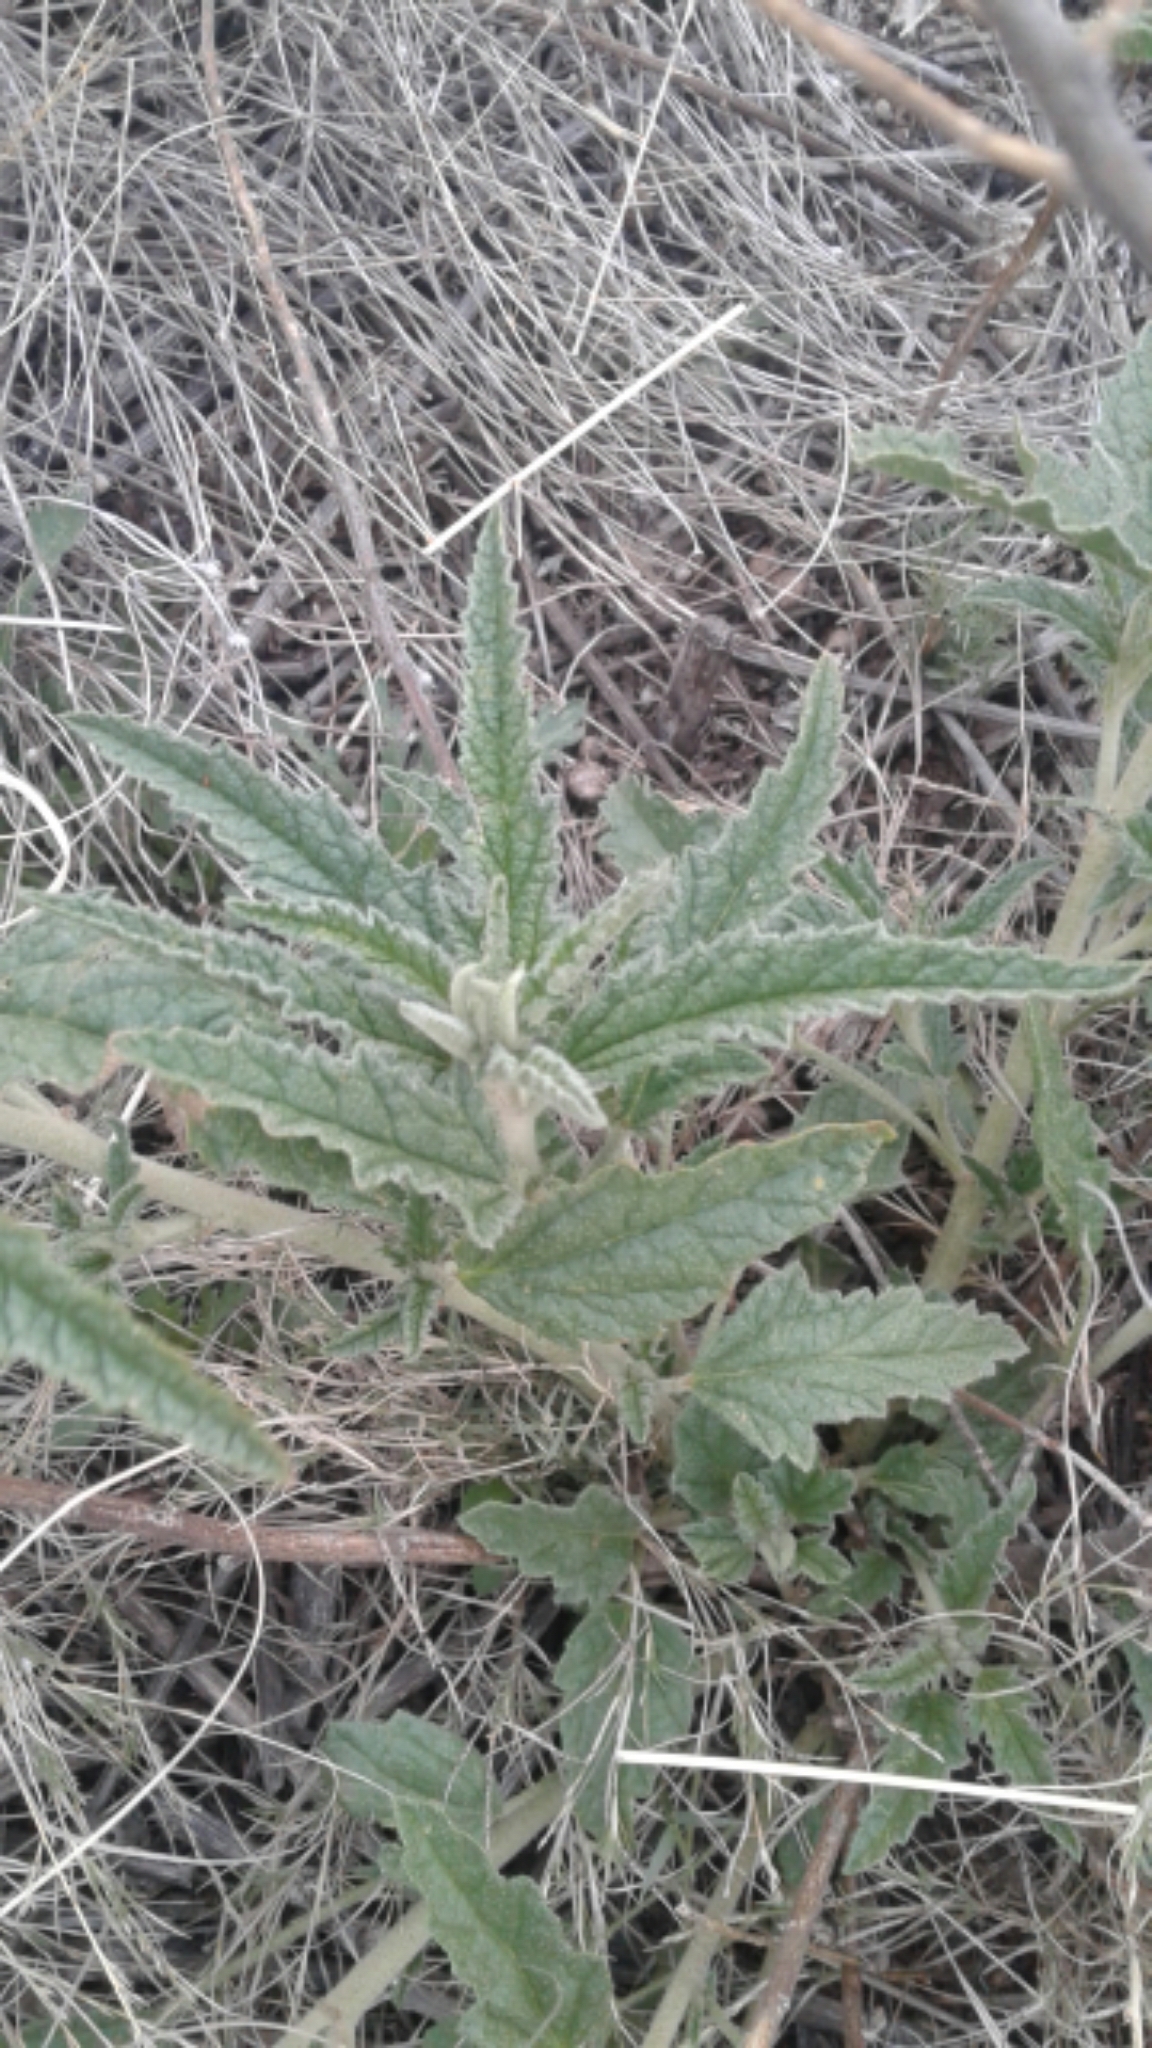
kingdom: Plantae
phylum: Tracheophyta
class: Magnoliopsida
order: Malvales
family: Malvaceae
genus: Sphaeralcea
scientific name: Sphaeralcea angustifolia
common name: Copper globe-mallow
